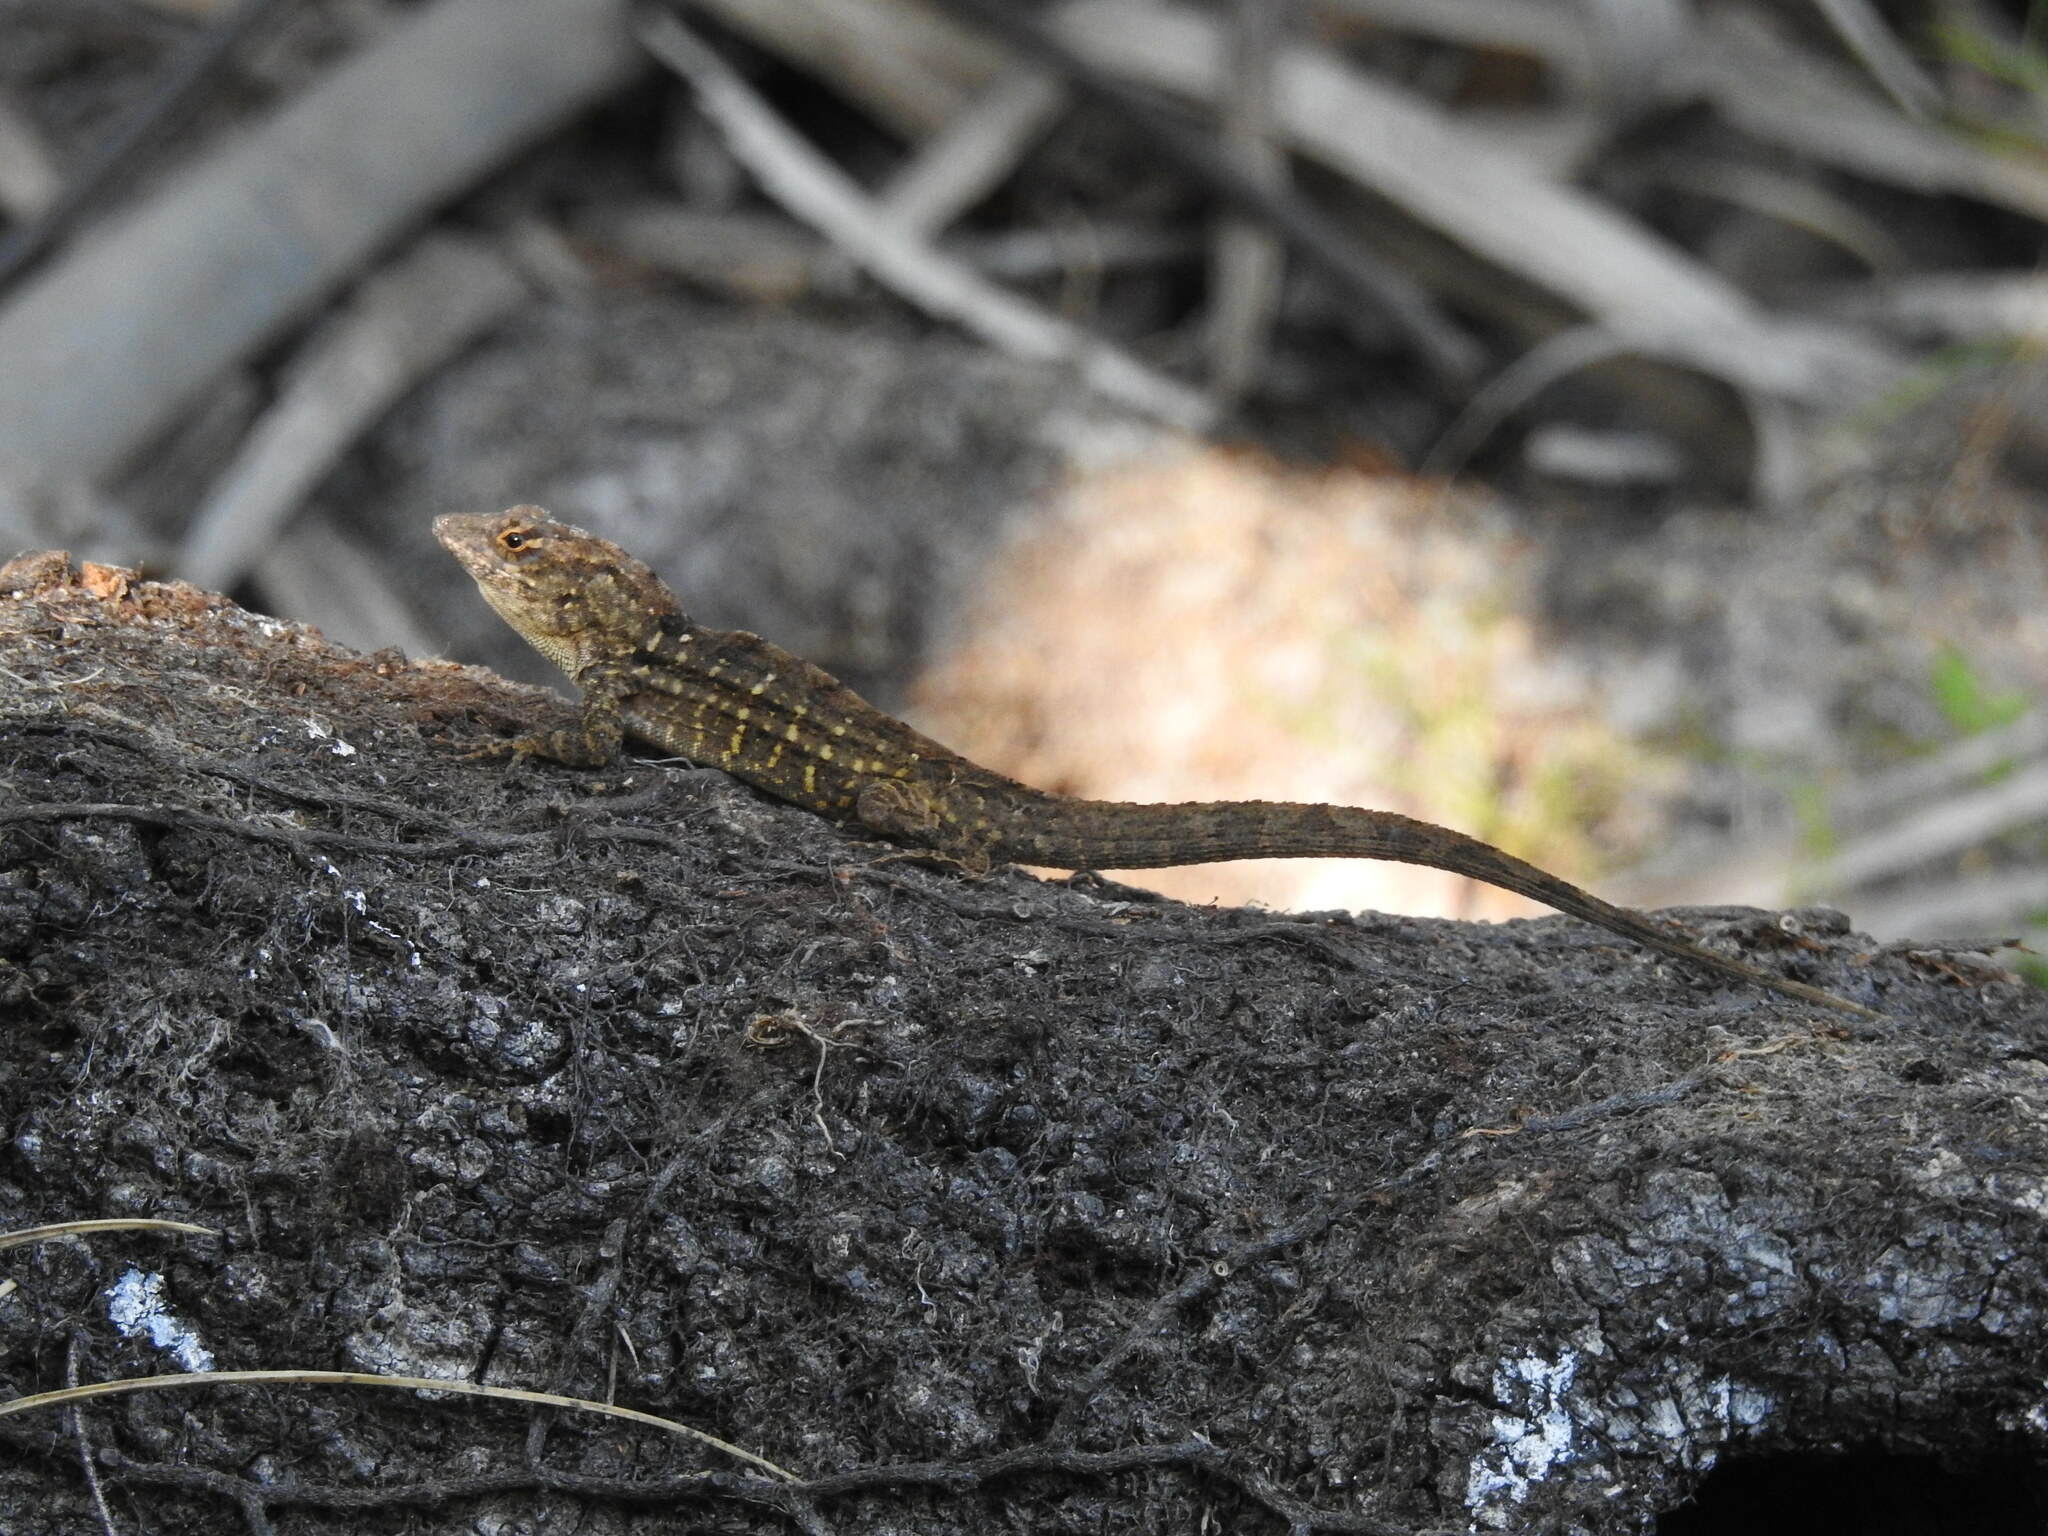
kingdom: Animalia
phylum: Chordata
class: Squamata
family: Dactyloidae
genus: Anolis
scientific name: Anolis sagrei
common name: Brown anole
